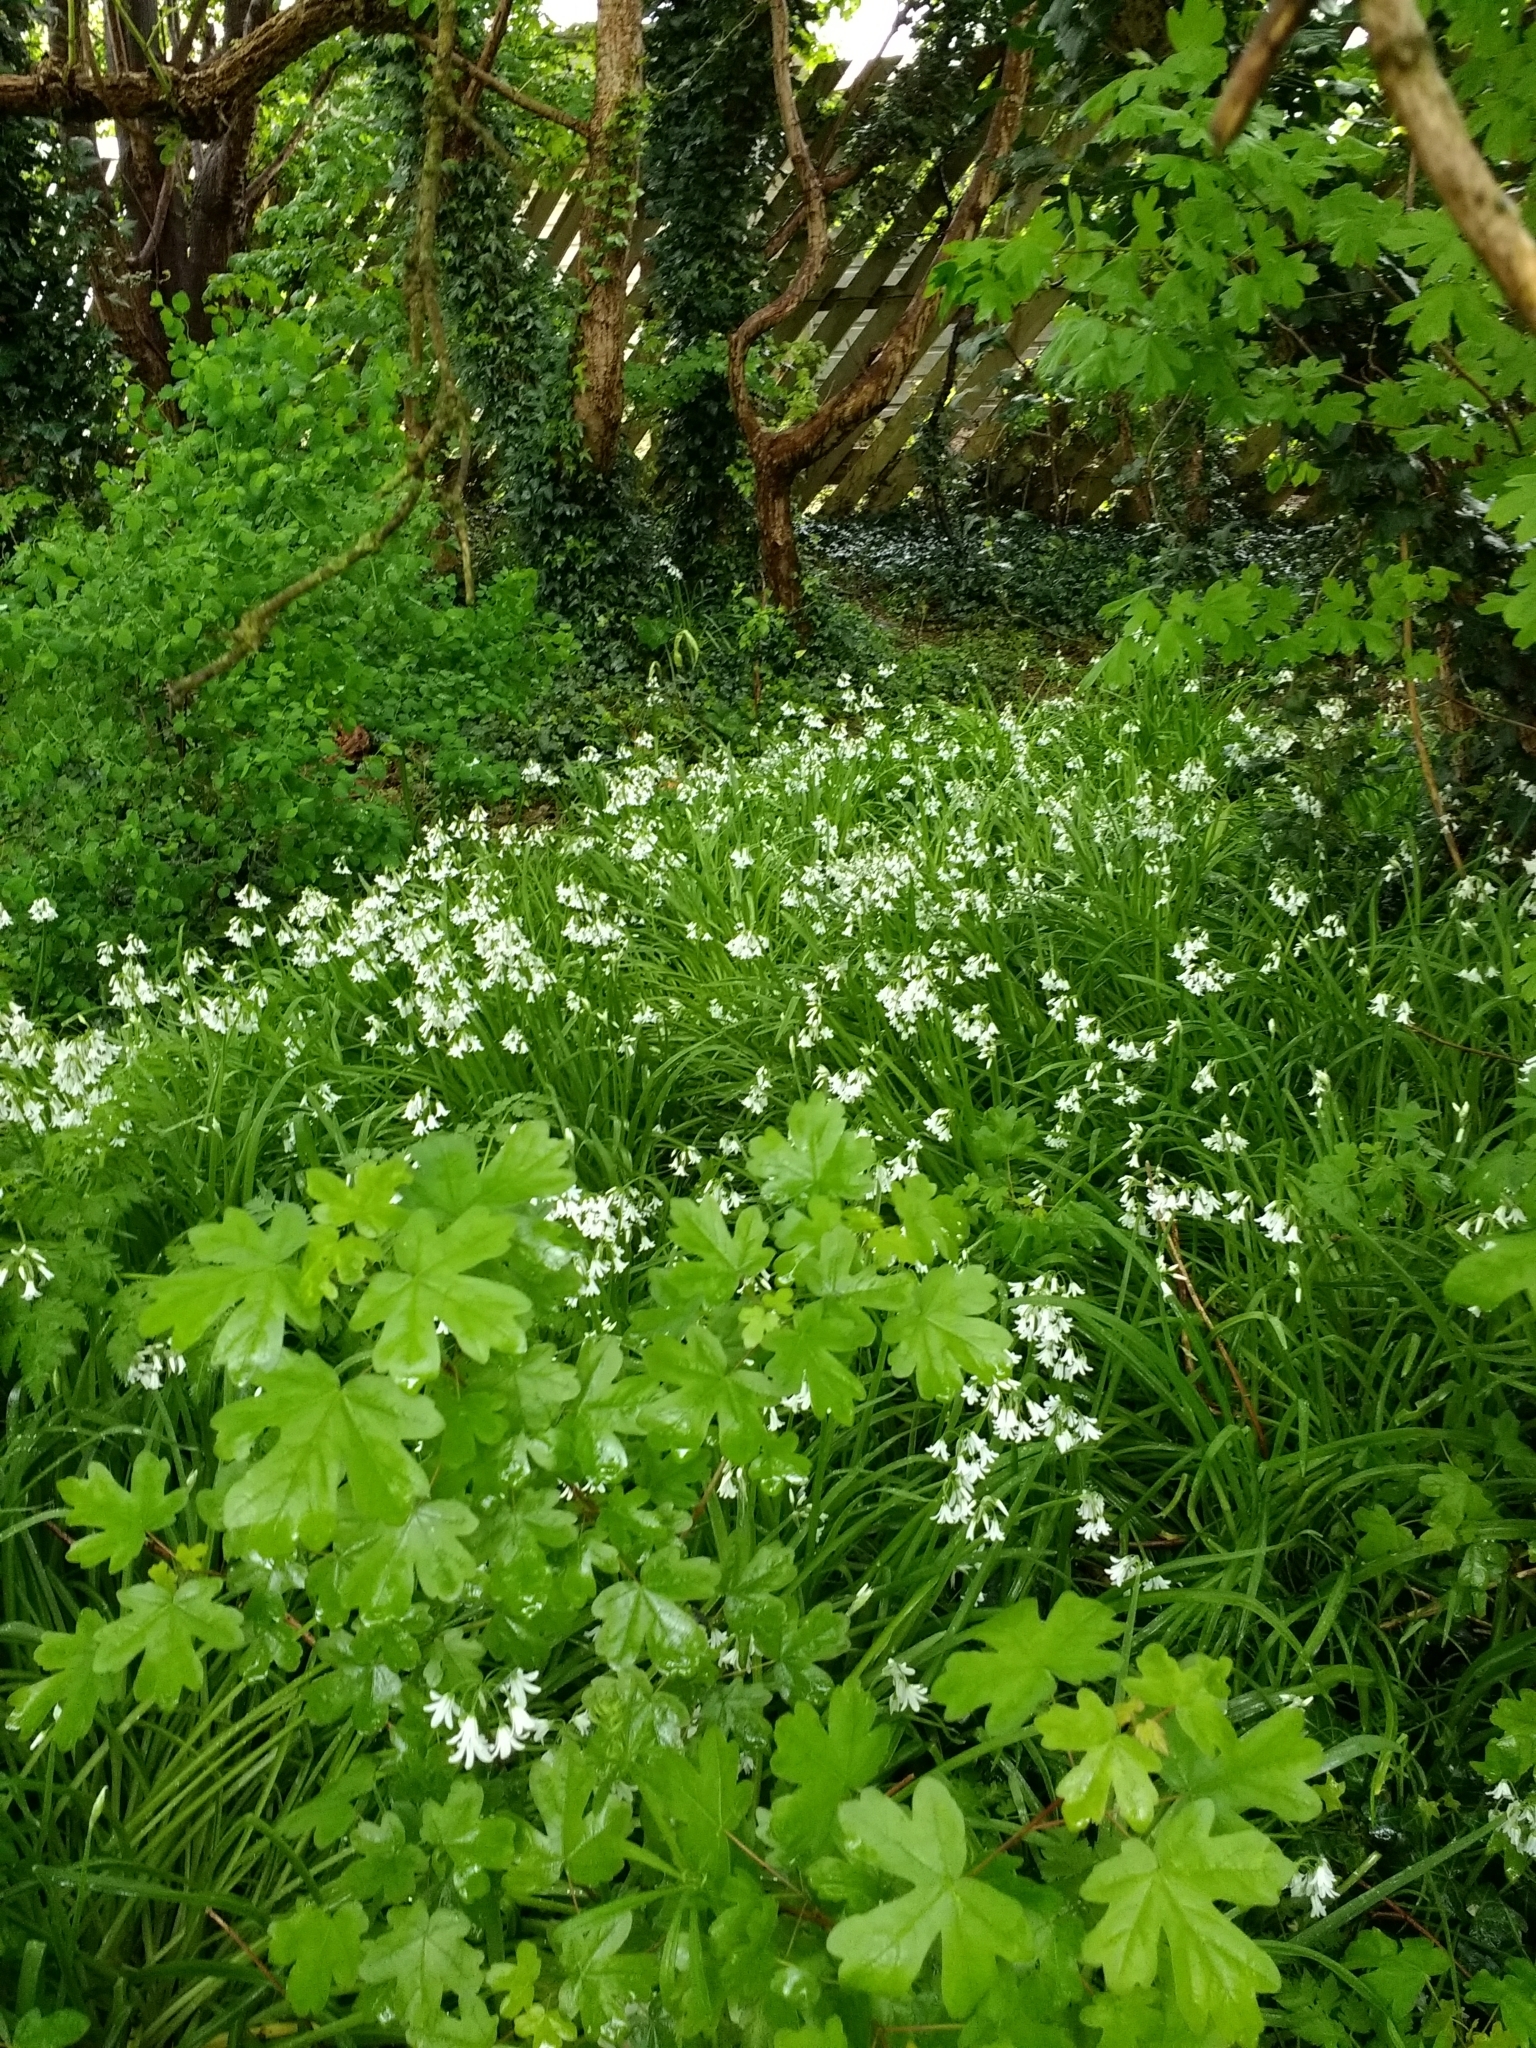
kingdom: Plantae
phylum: Tracheophyta
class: Liliopsida
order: Asparagales
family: Amaryllidaceae
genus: Allium
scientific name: Allium triquetrum
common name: Three-cornered garlic
